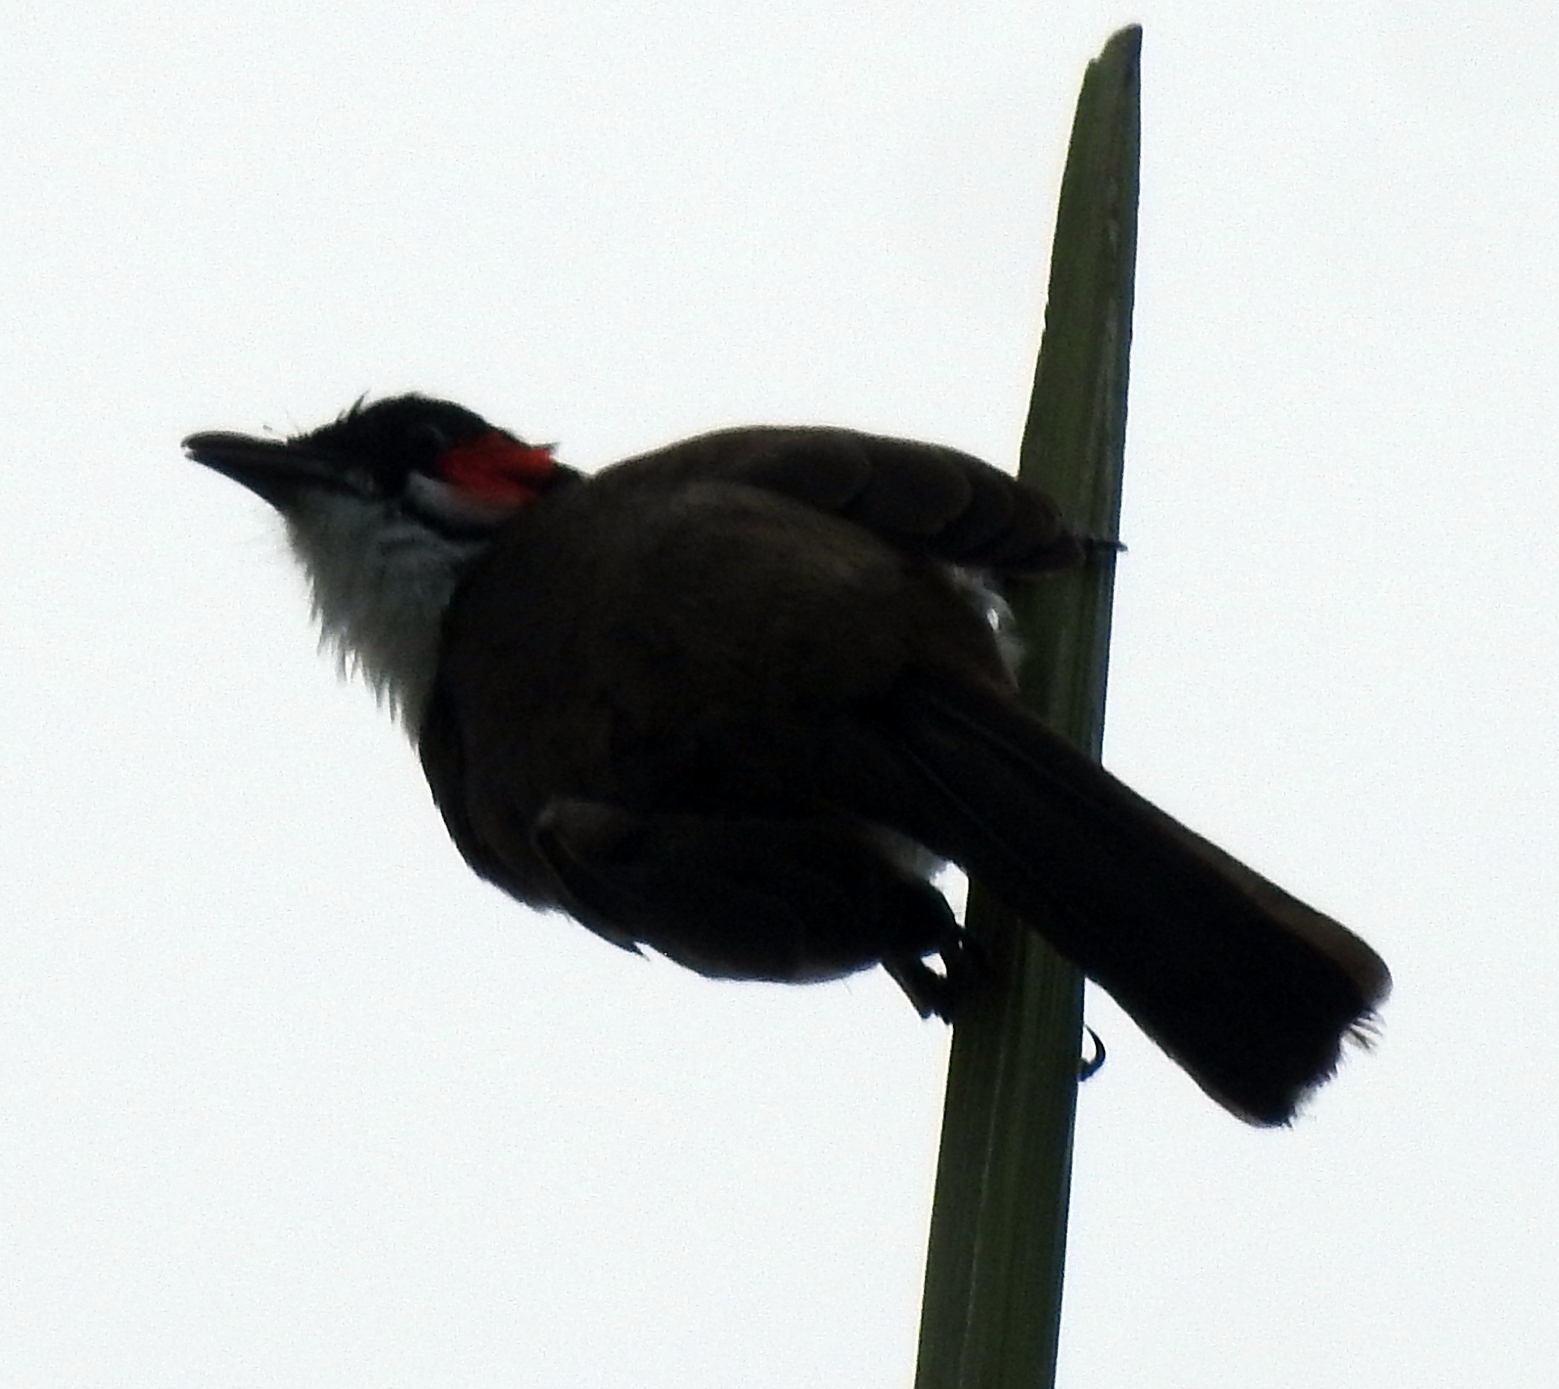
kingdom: Animalia
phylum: Chordata
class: Aves
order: Passeriformes
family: Pycnonotidae
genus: Pycnonotus
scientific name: Pycnonotus jocosus
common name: Red-whiskered bulbul
